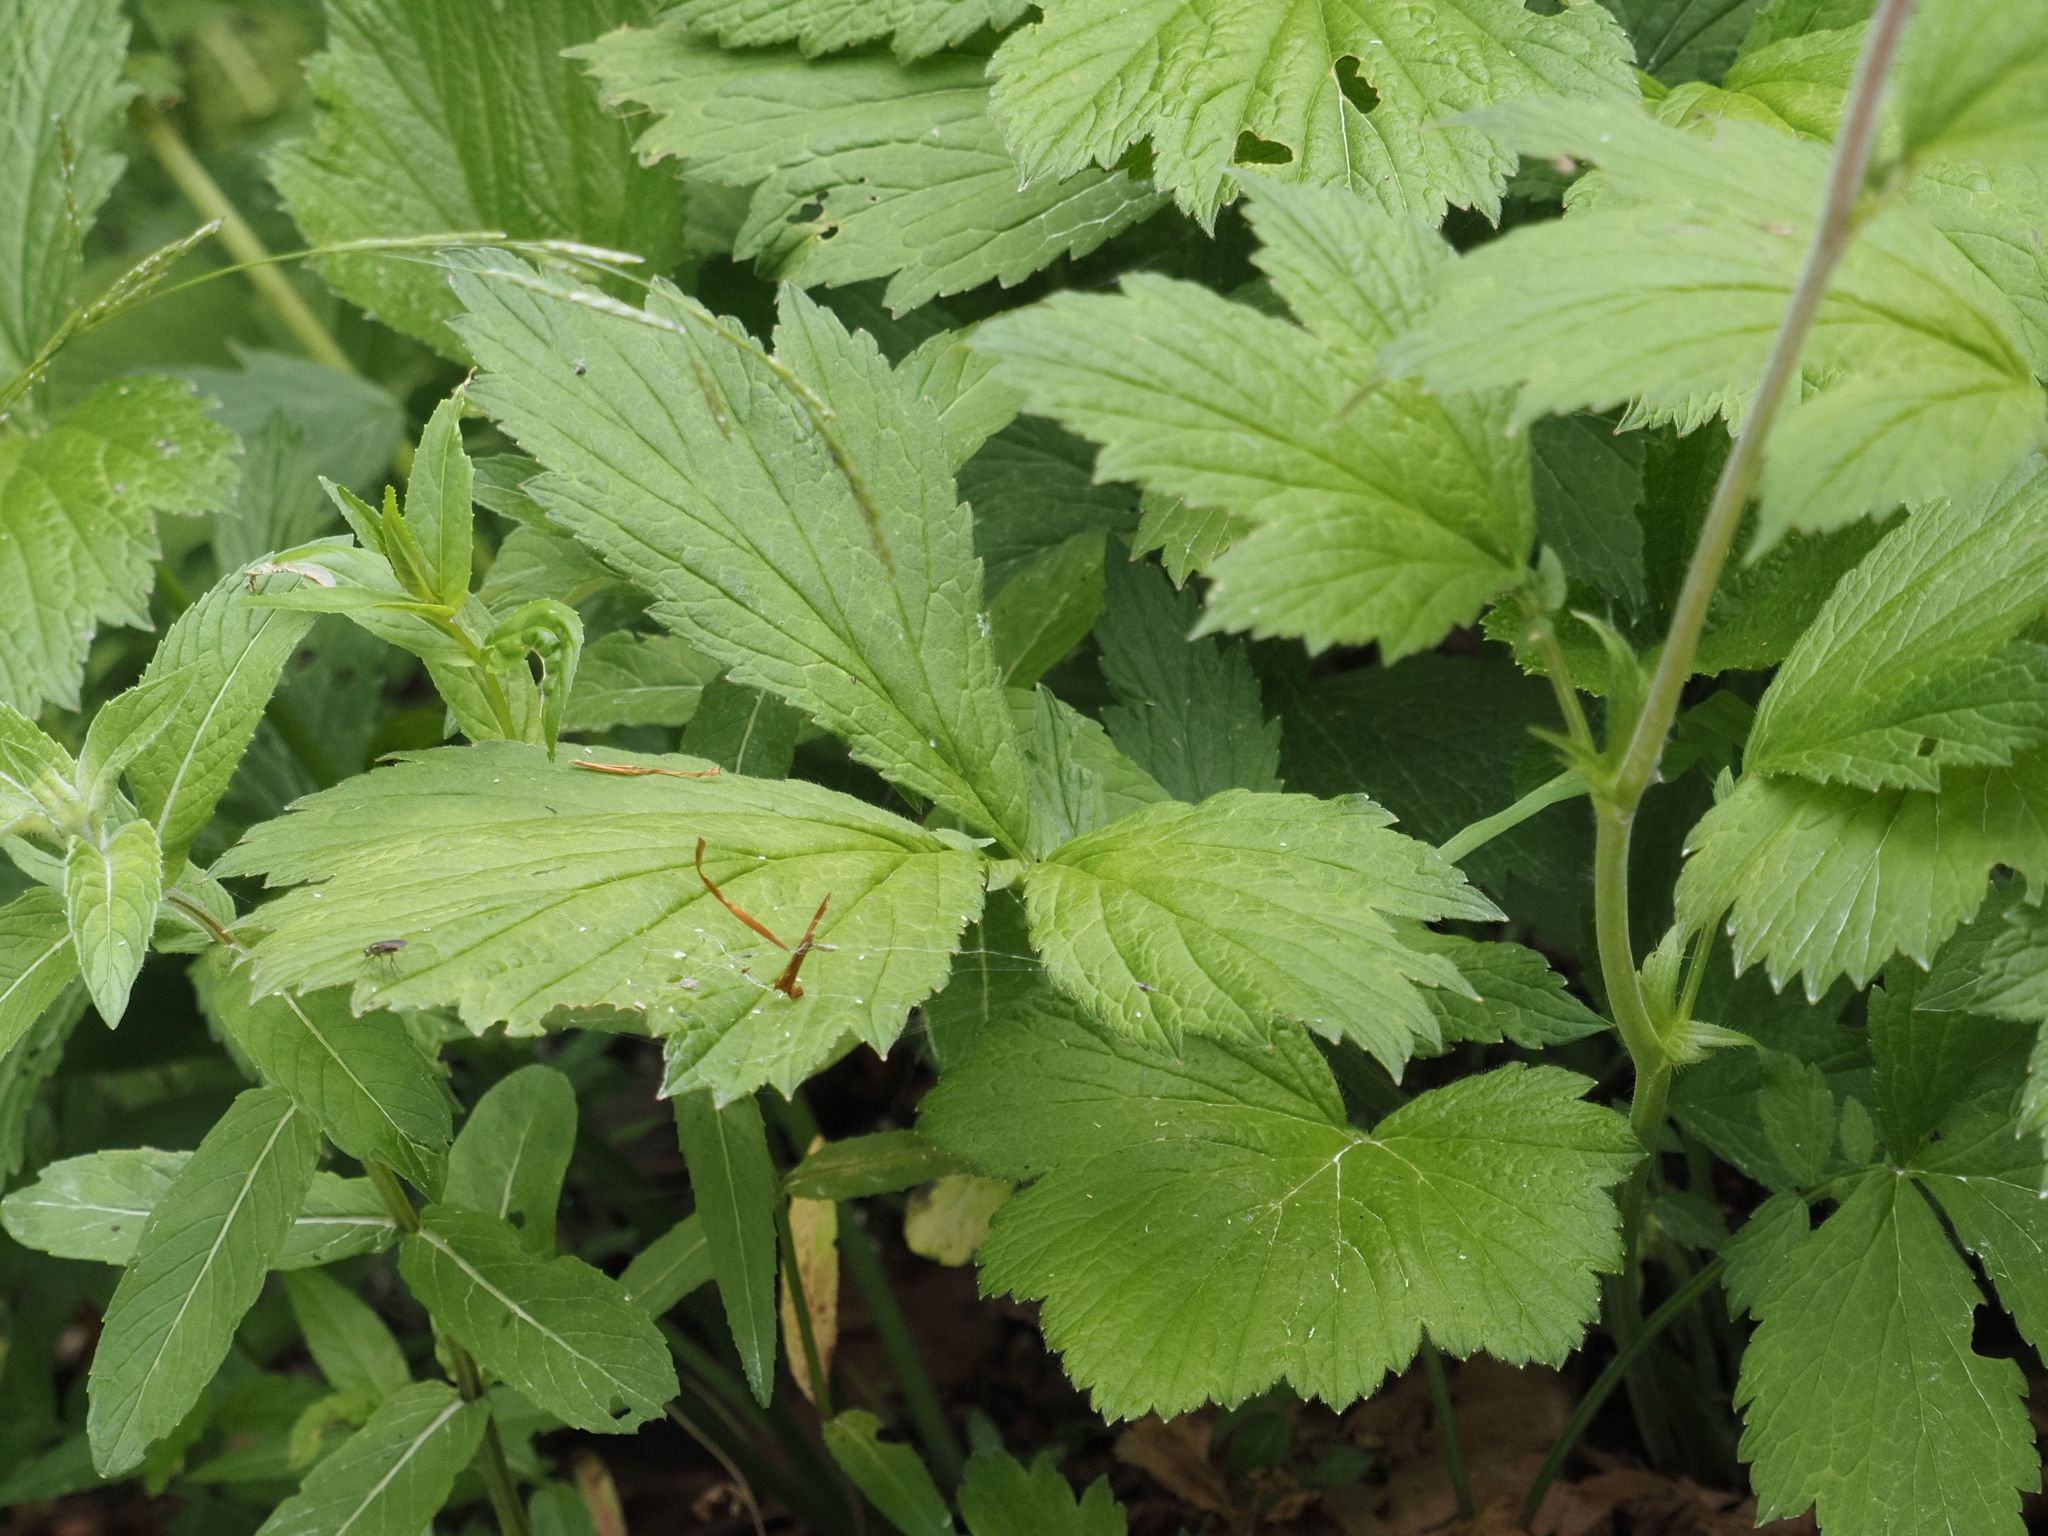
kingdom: Plantae
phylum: Tracheophyta
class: Magnoliopsida
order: Rosales
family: Rosaceae
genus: Geum
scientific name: Geum rivale
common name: Water avens
